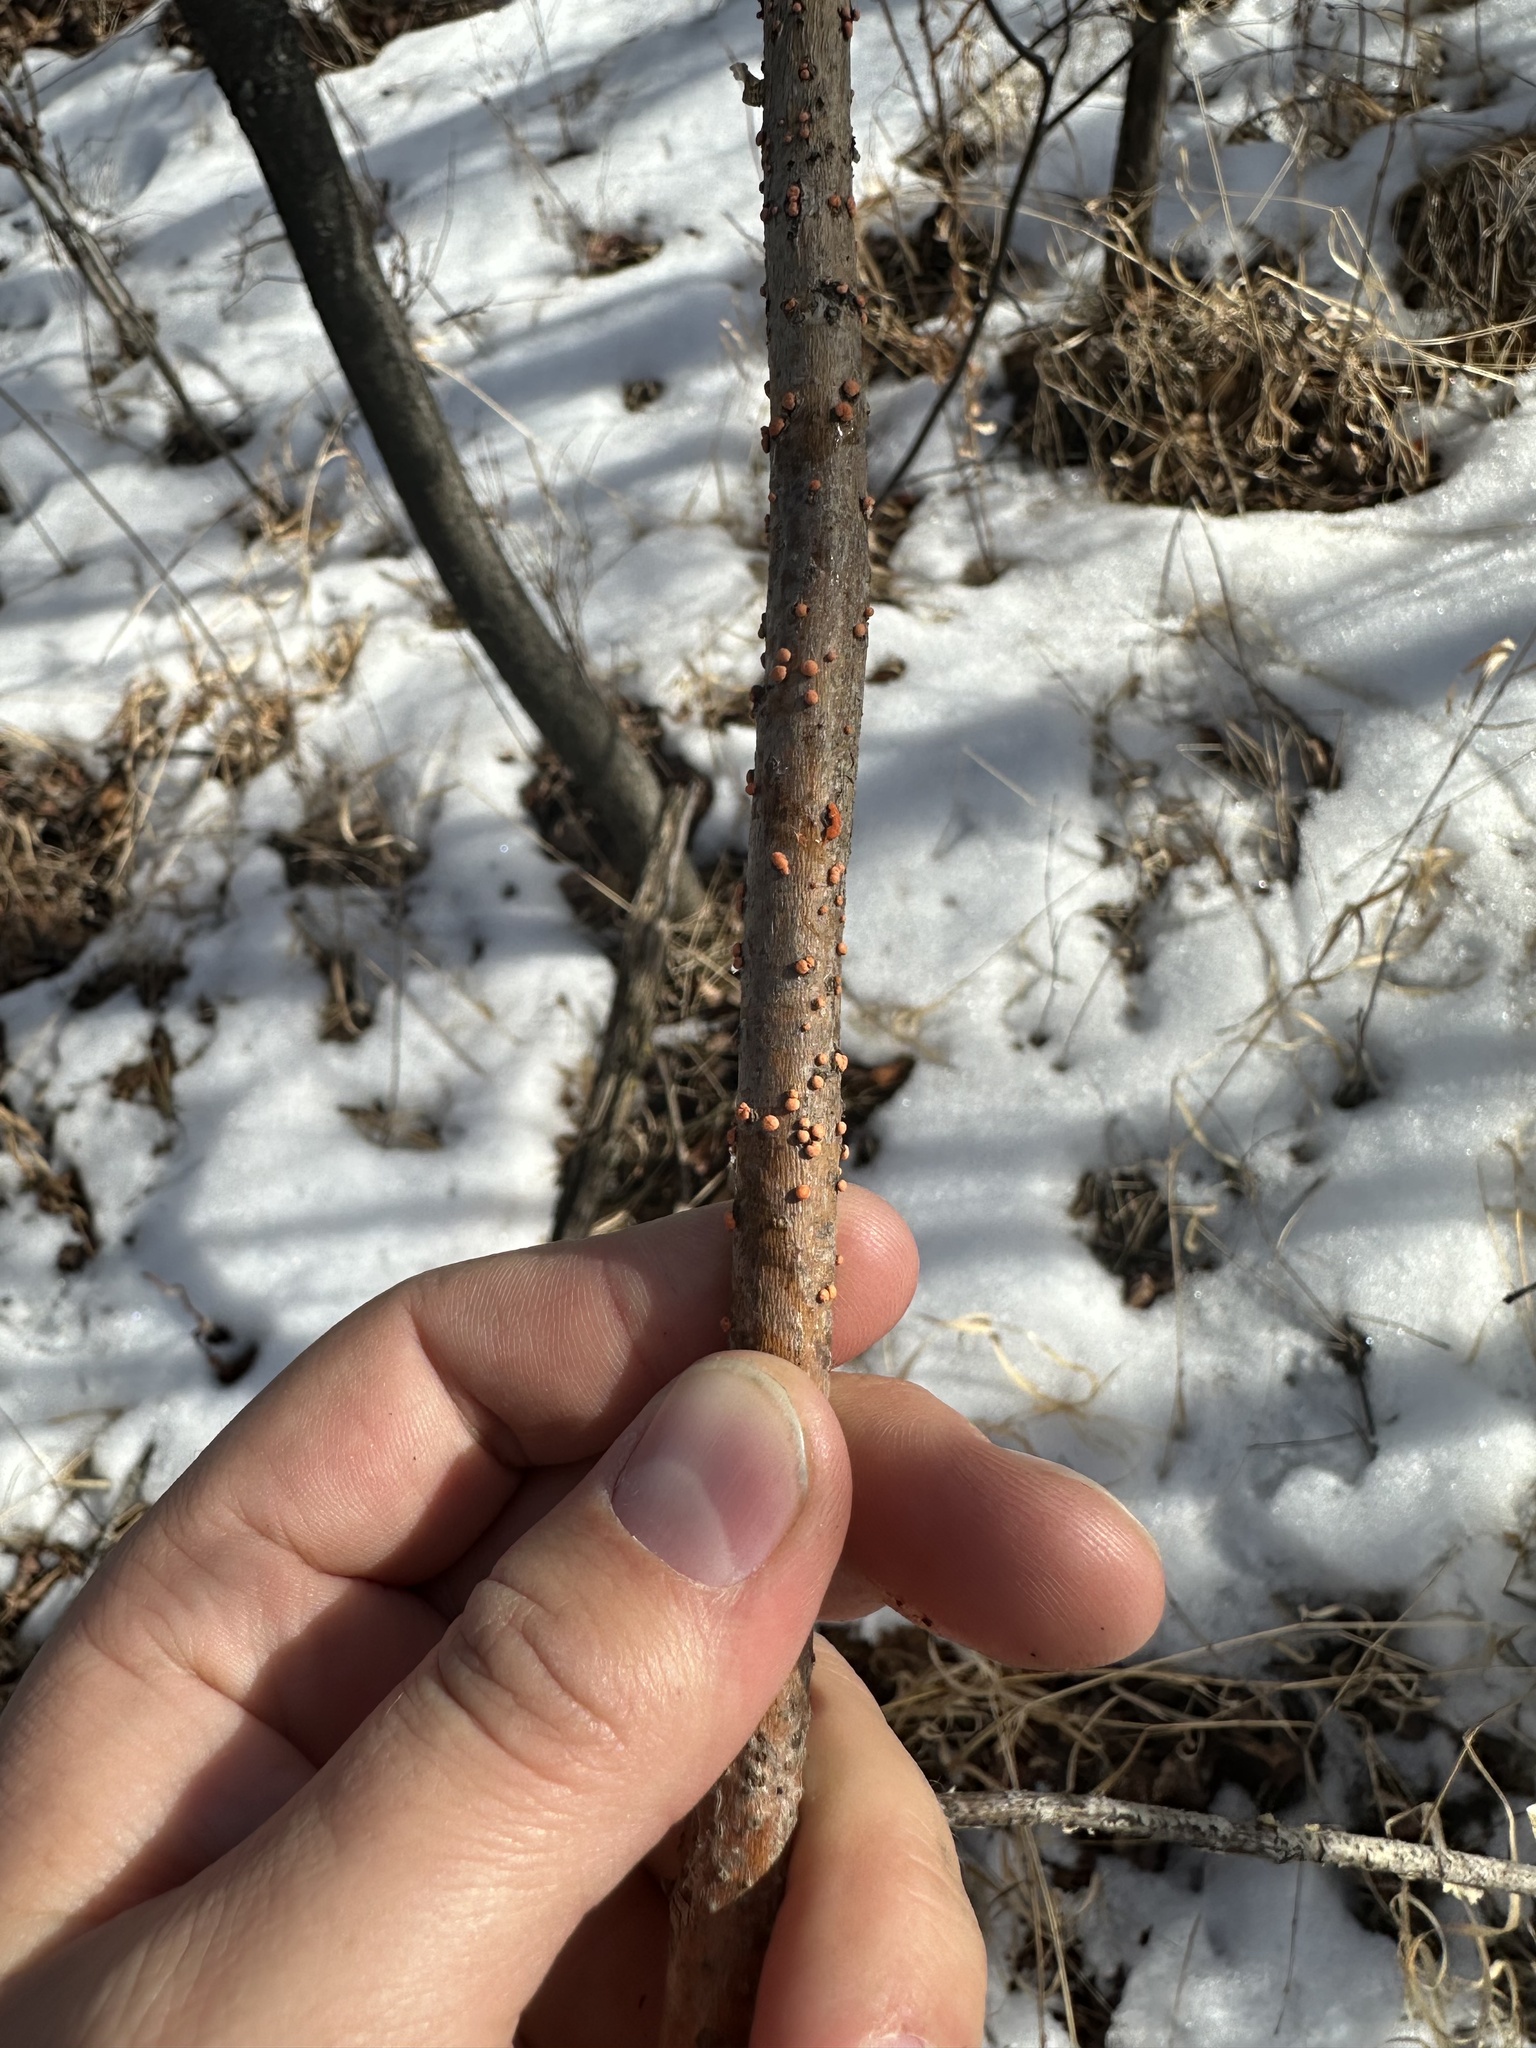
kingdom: Fungi
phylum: Ascomycota
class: Sordariomycetes
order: Hypocreales
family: Nectriaceae
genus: Nectria
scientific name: Nectria cinnabarina
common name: Coral spot
